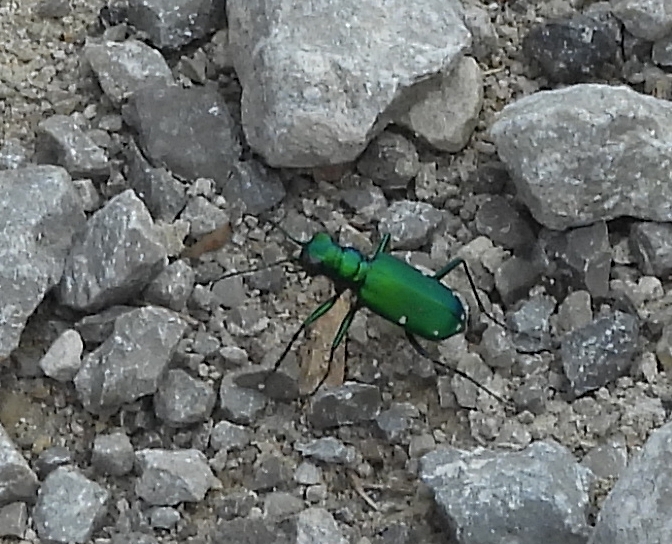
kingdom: Animalia
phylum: Arthropoda
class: Insecta
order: Coleoptera
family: Carabidae
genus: Cicindela
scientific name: Cicindela sexguttata
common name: Six-spotted tiger beetle
